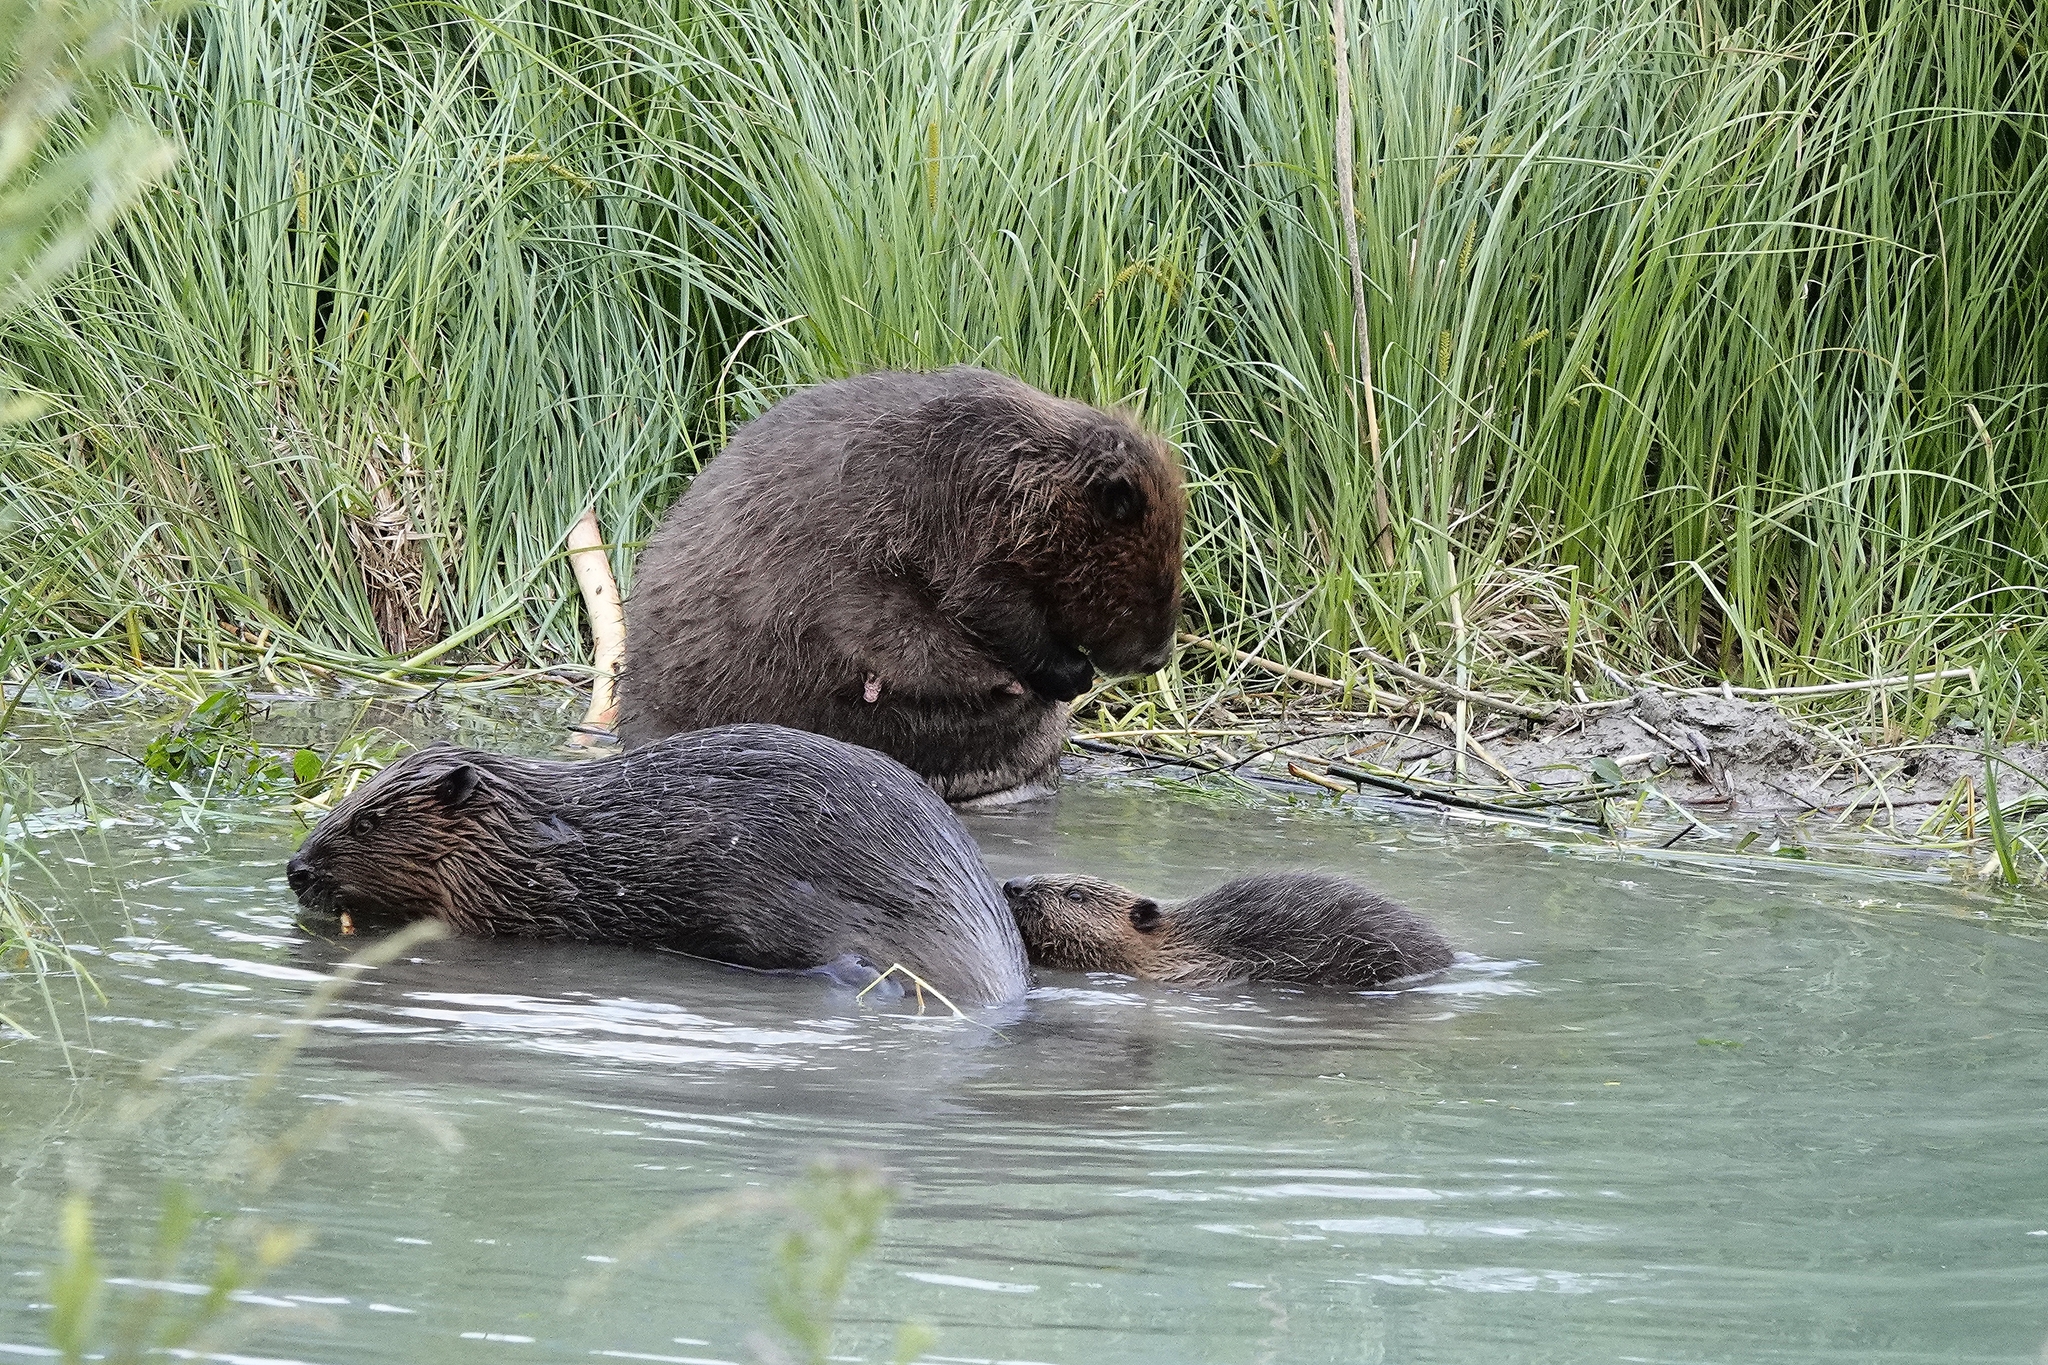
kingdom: Animalia
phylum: Chordata
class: Mammalia
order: Rodentia
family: Castoridae
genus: Castor
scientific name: Castor fiber
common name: Eurasian beaver
